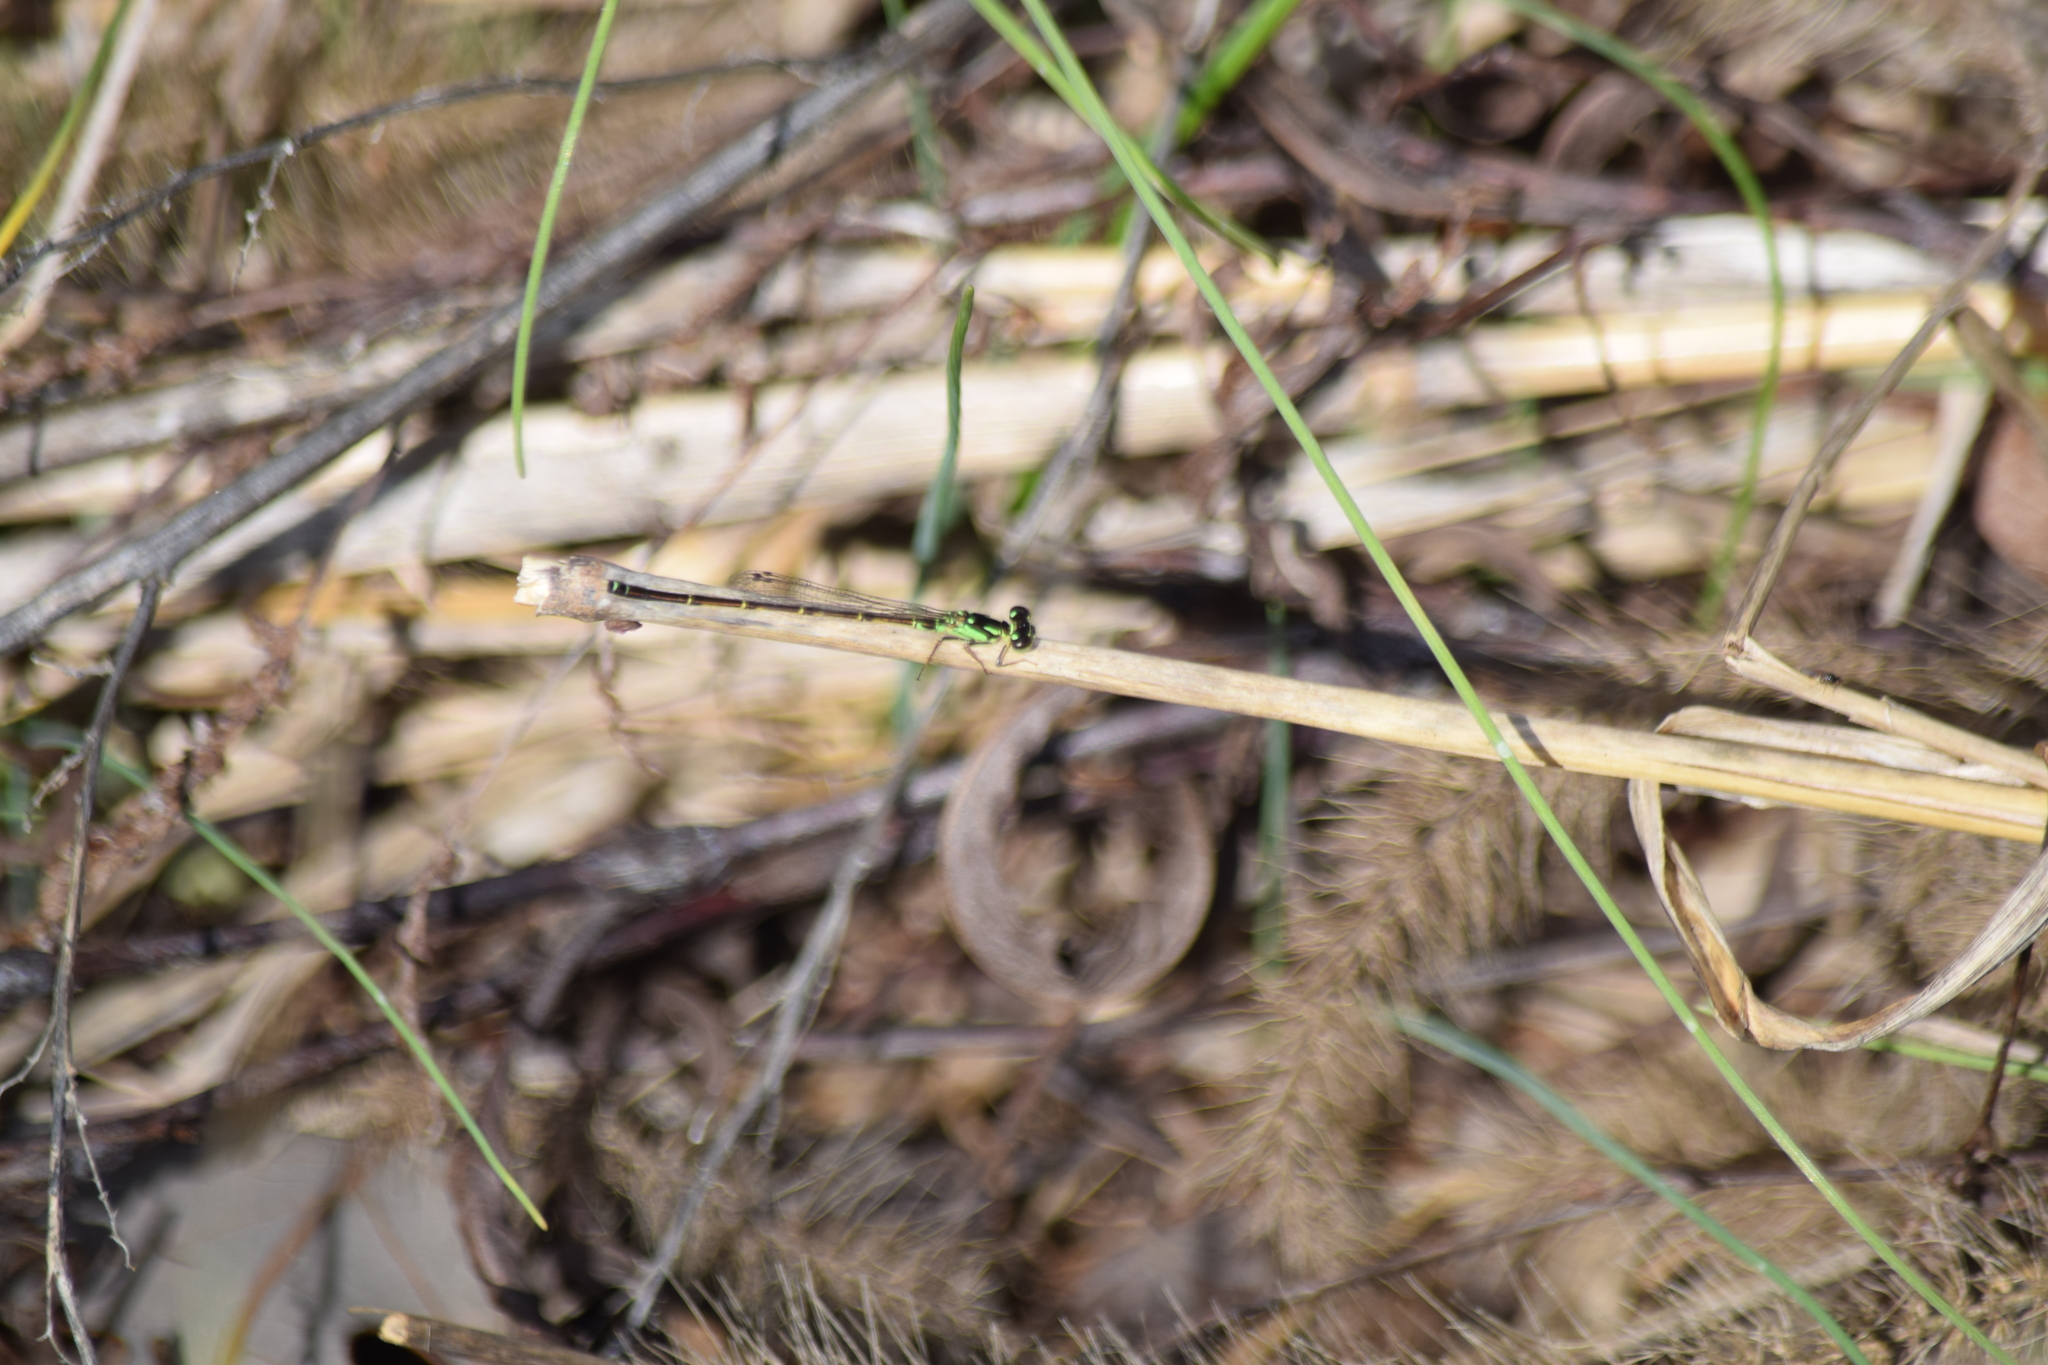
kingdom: Animalia
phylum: Arthropoda
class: Insecta
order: Odonata
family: Coenagrionidae
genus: Ischnura
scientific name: Ischnura posita
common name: Fragile forktail
